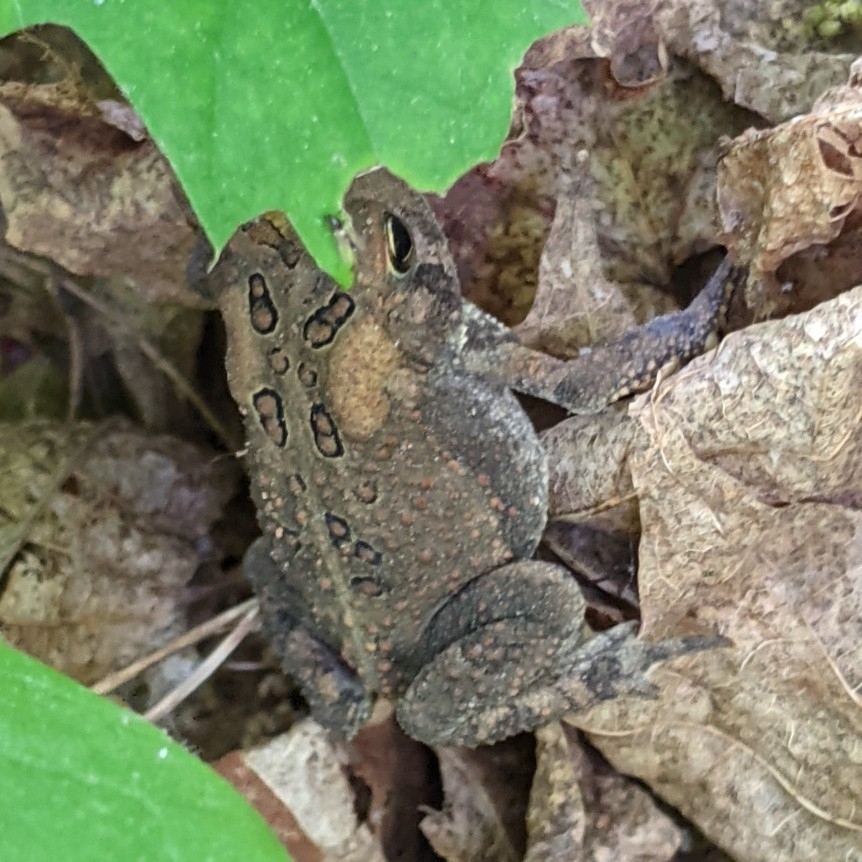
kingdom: Animalia
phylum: Chordata
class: Amphibia
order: Anura
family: Bufonidae
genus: Anaxyrus
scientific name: Anaxyrus americanus
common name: American toad
